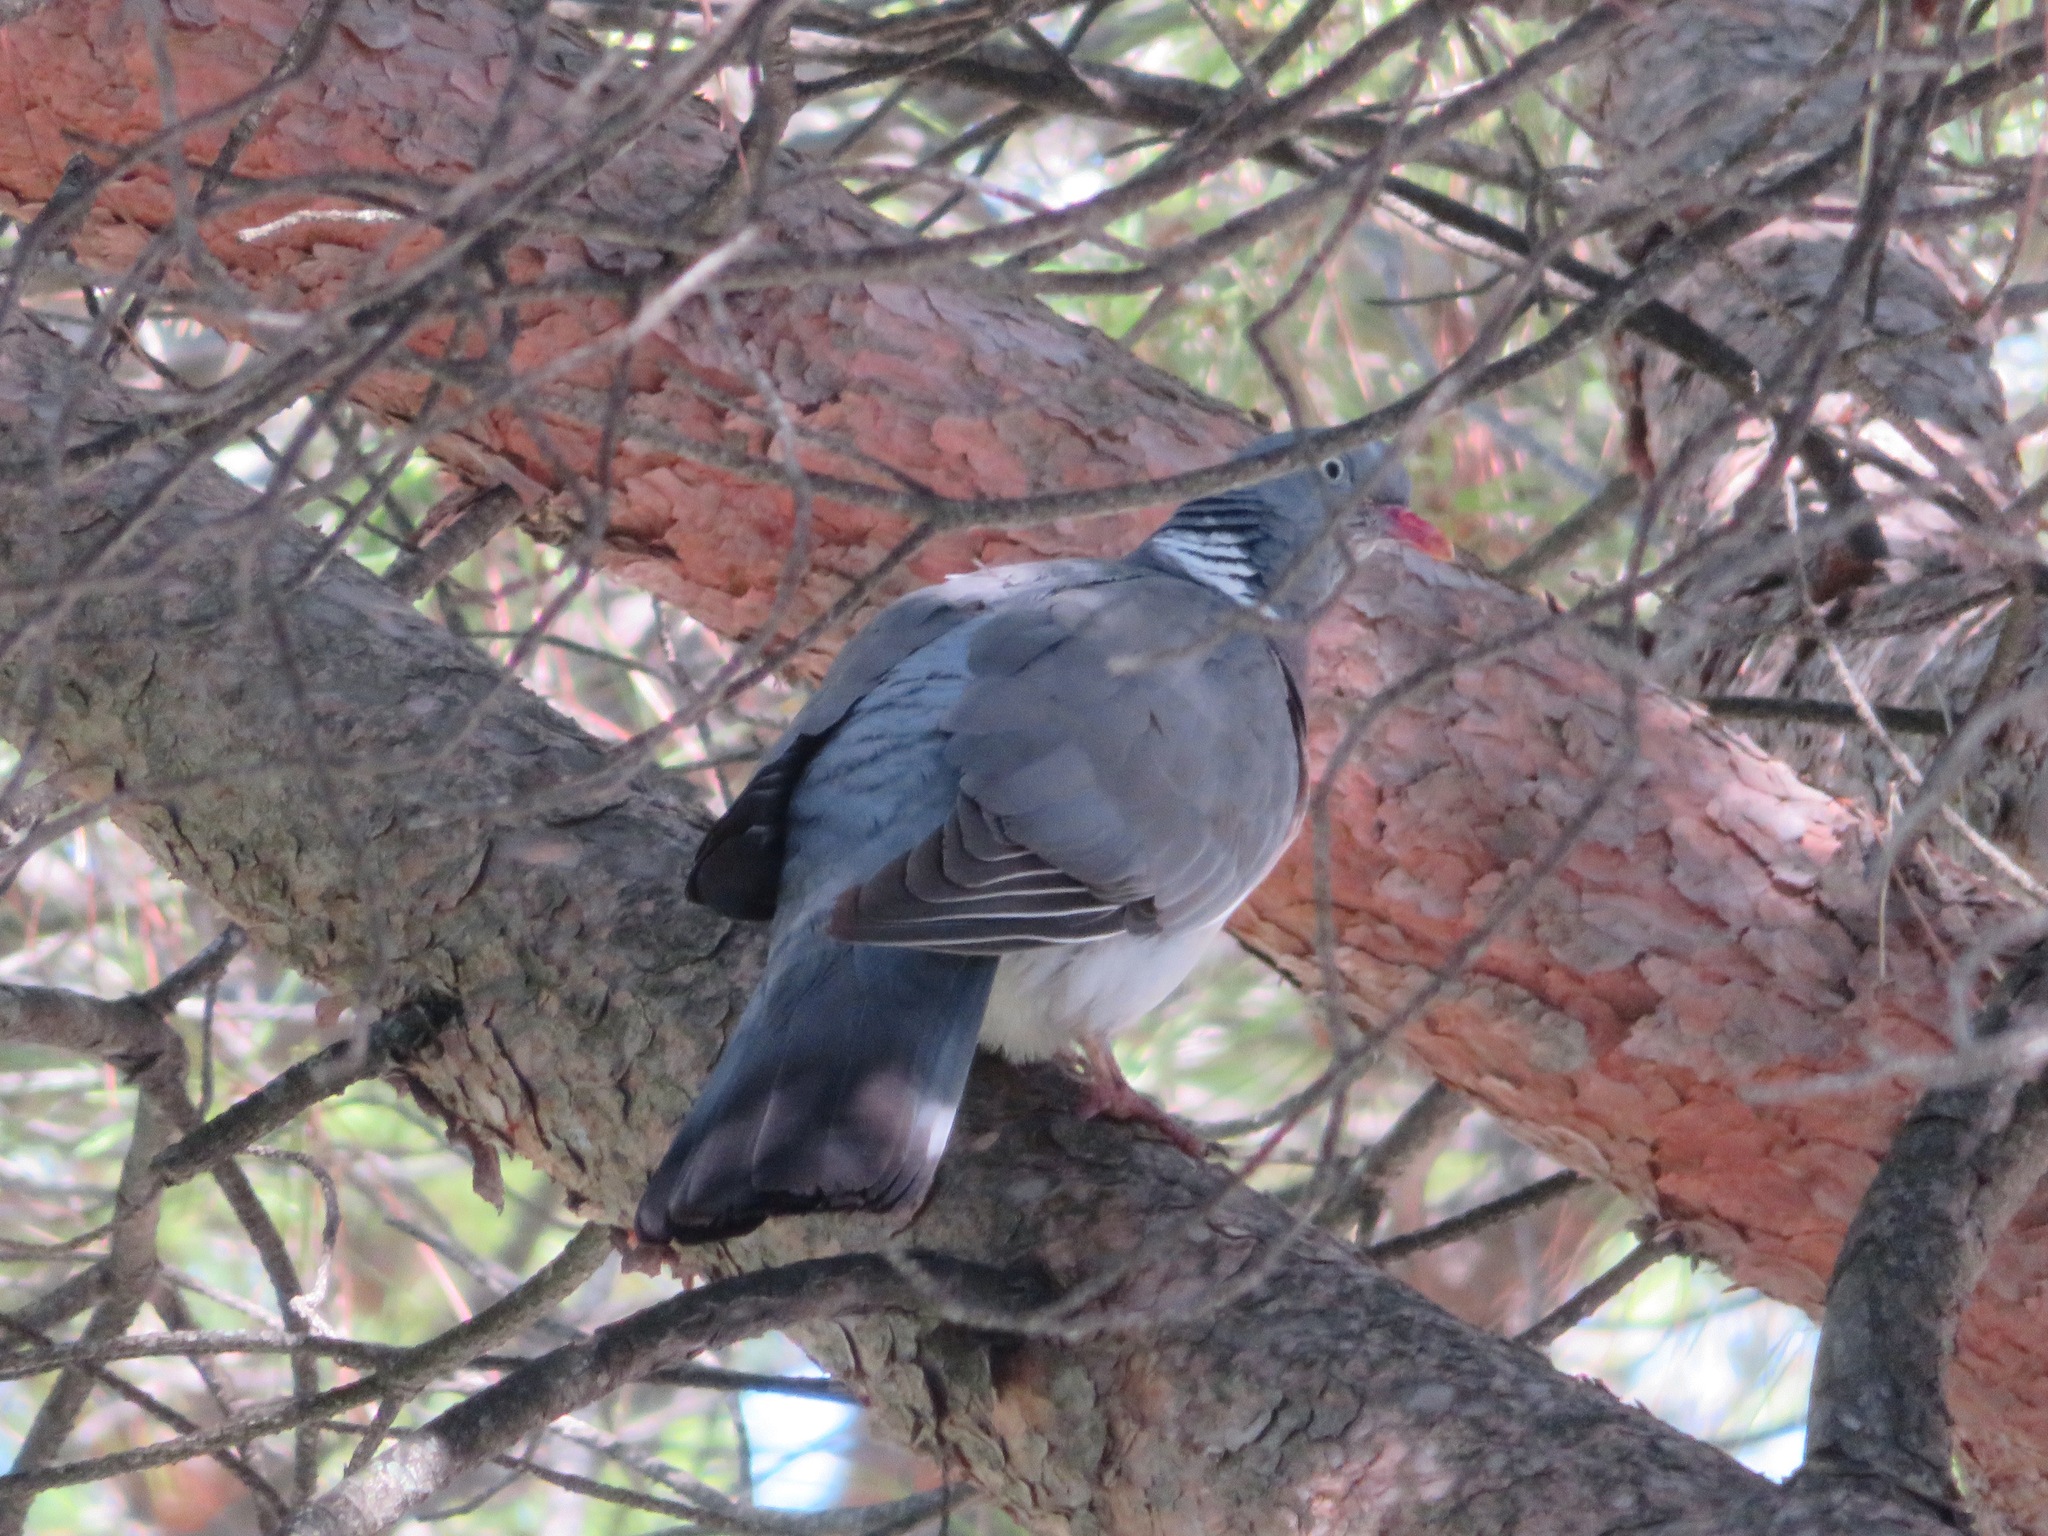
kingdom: Animalia
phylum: Chordata
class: Aves
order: Columbiformes
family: Columbidae
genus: Columba
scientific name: Columba palumbus
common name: Common wood pigeon
